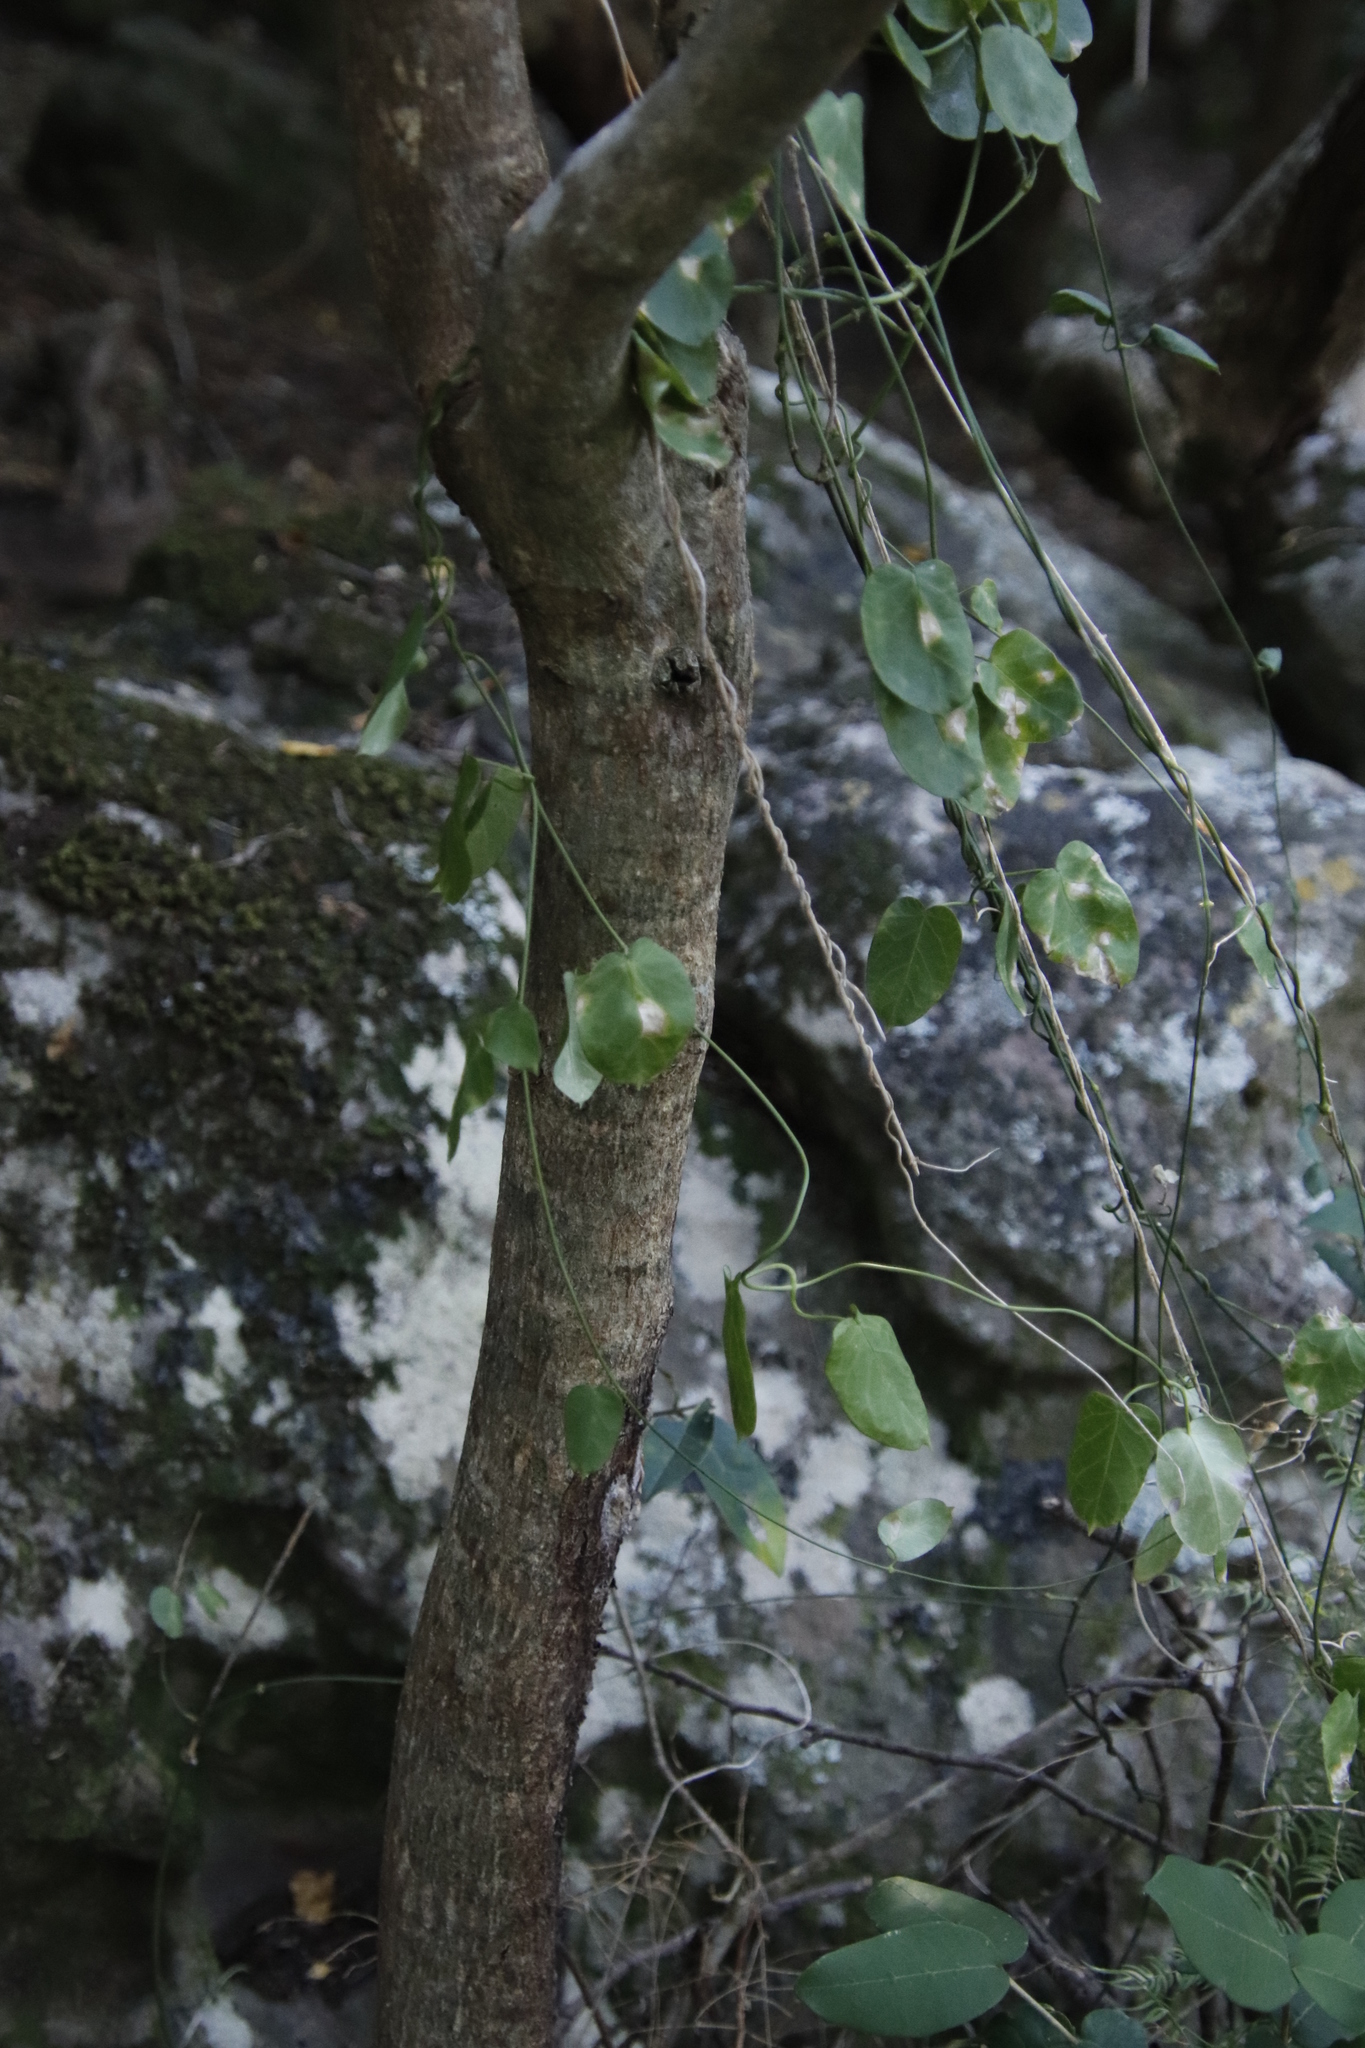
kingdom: Plantae
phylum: Tracheophyta
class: Magnoliopsida
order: Gentianales
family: Apocynaceae
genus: Cynanchum
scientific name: Cynanchum obtusifolium
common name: Monkey-rope
